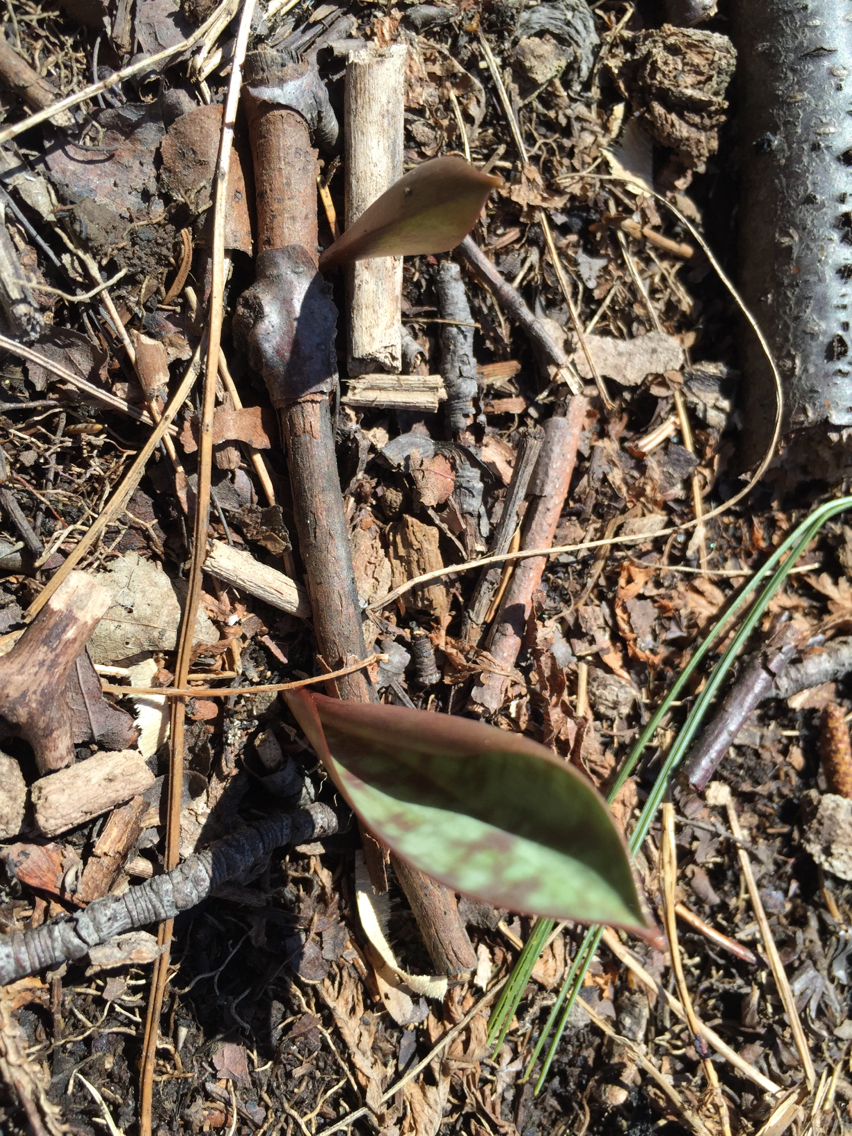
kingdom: Plantae
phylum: Tracheophyta
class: Liliopsida
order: Liliales
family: Liliaceae
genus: Erythronium
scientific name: Erythronium americanum
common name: Yellow adder's-tongue
